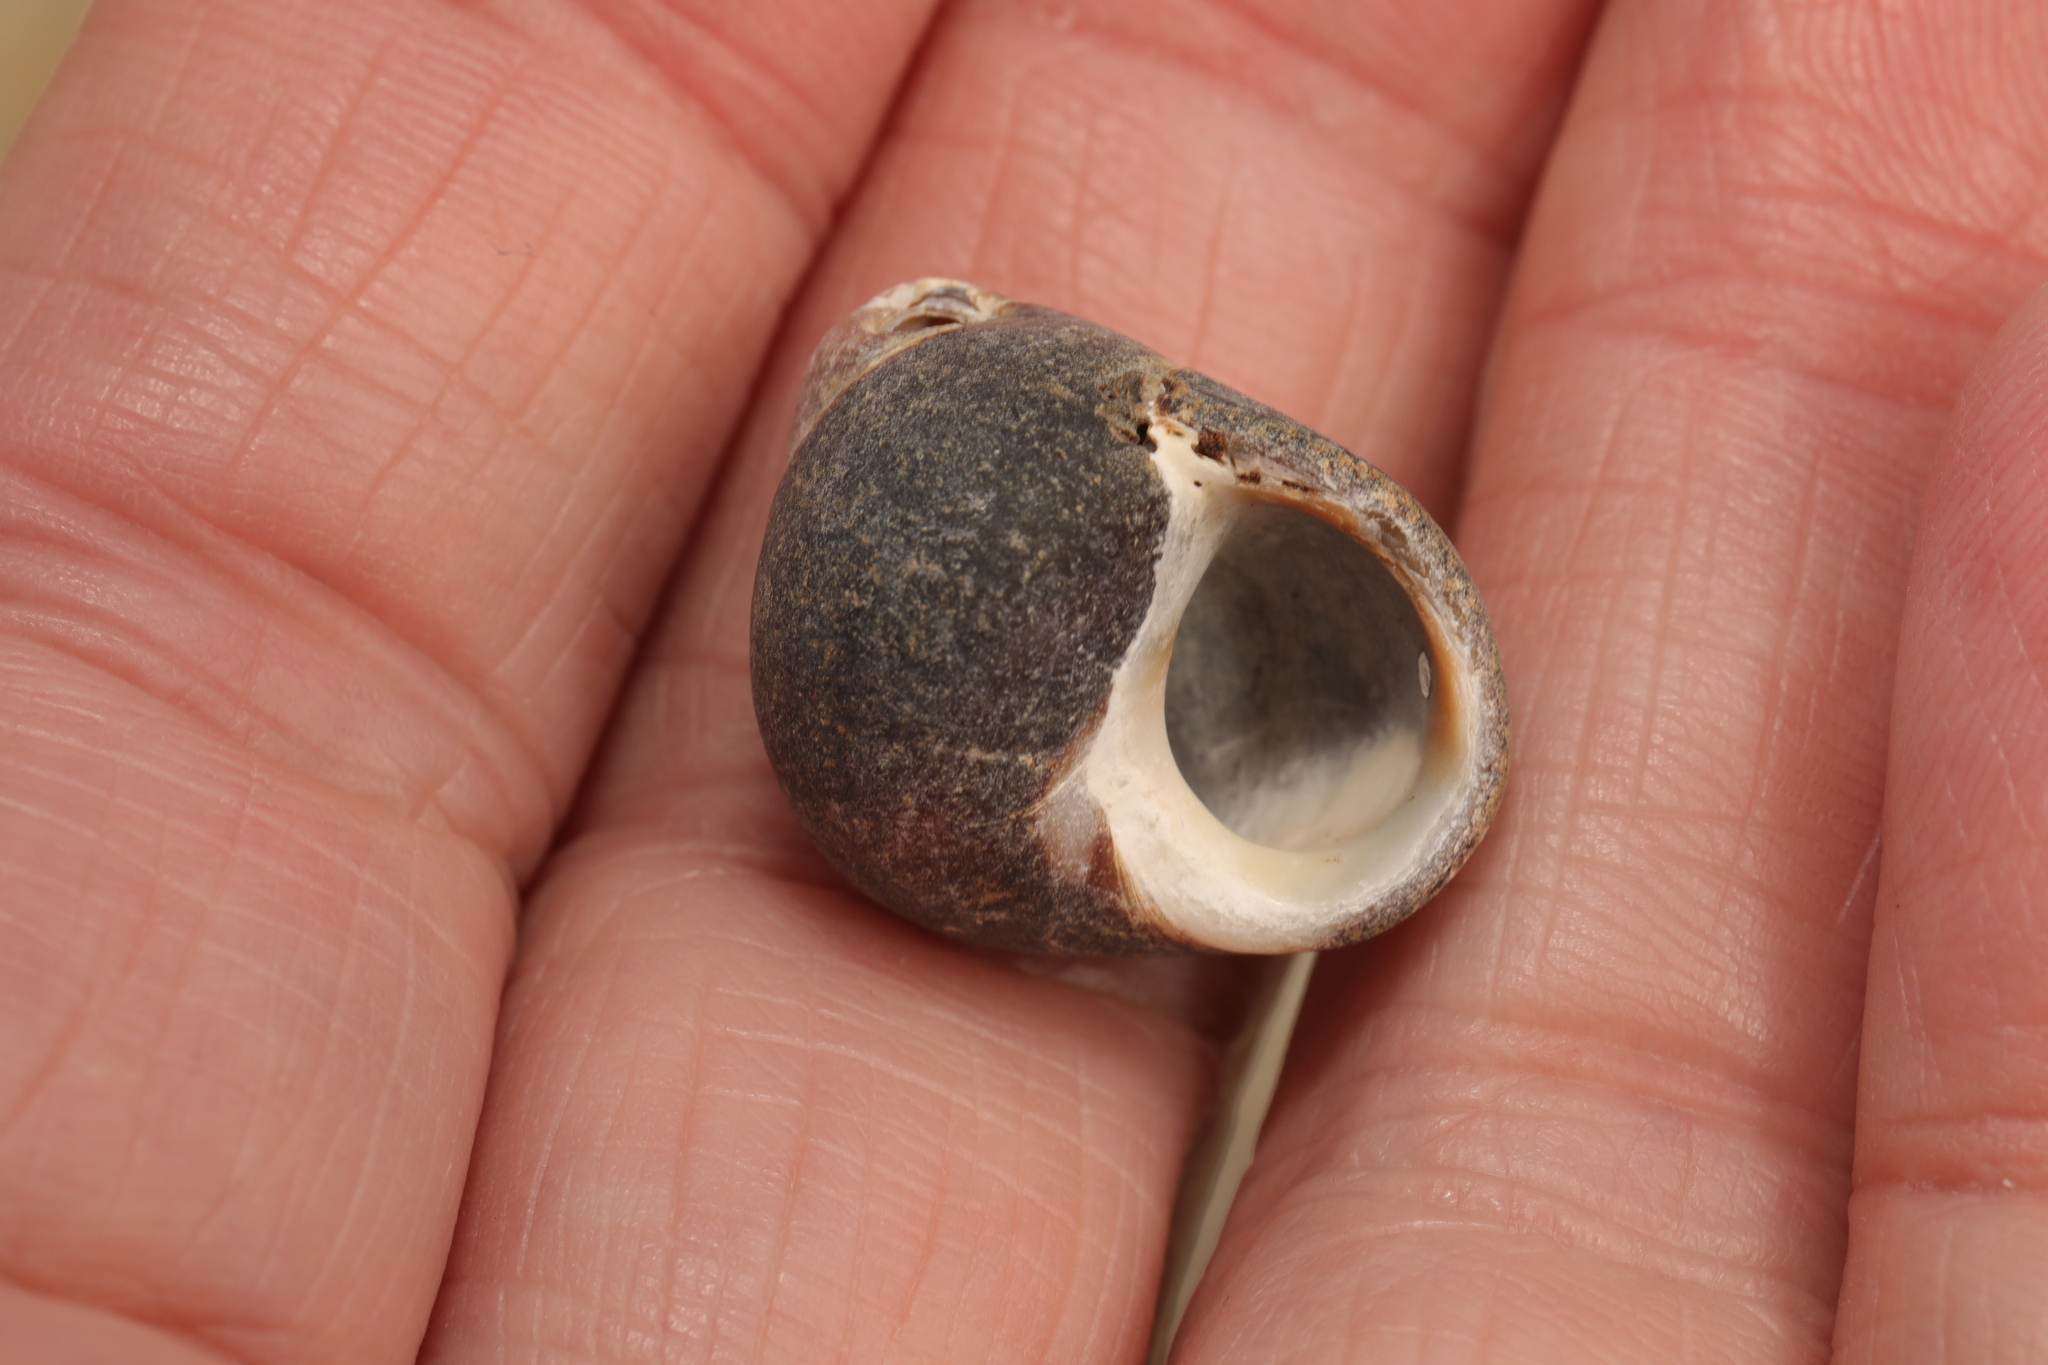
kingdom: Animalia
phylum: Mollusca
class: Gastropoda
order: Littorinimorpha
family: Littorinidae
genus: Littorina
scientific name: Littorina littorea
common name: Common periwinkle
